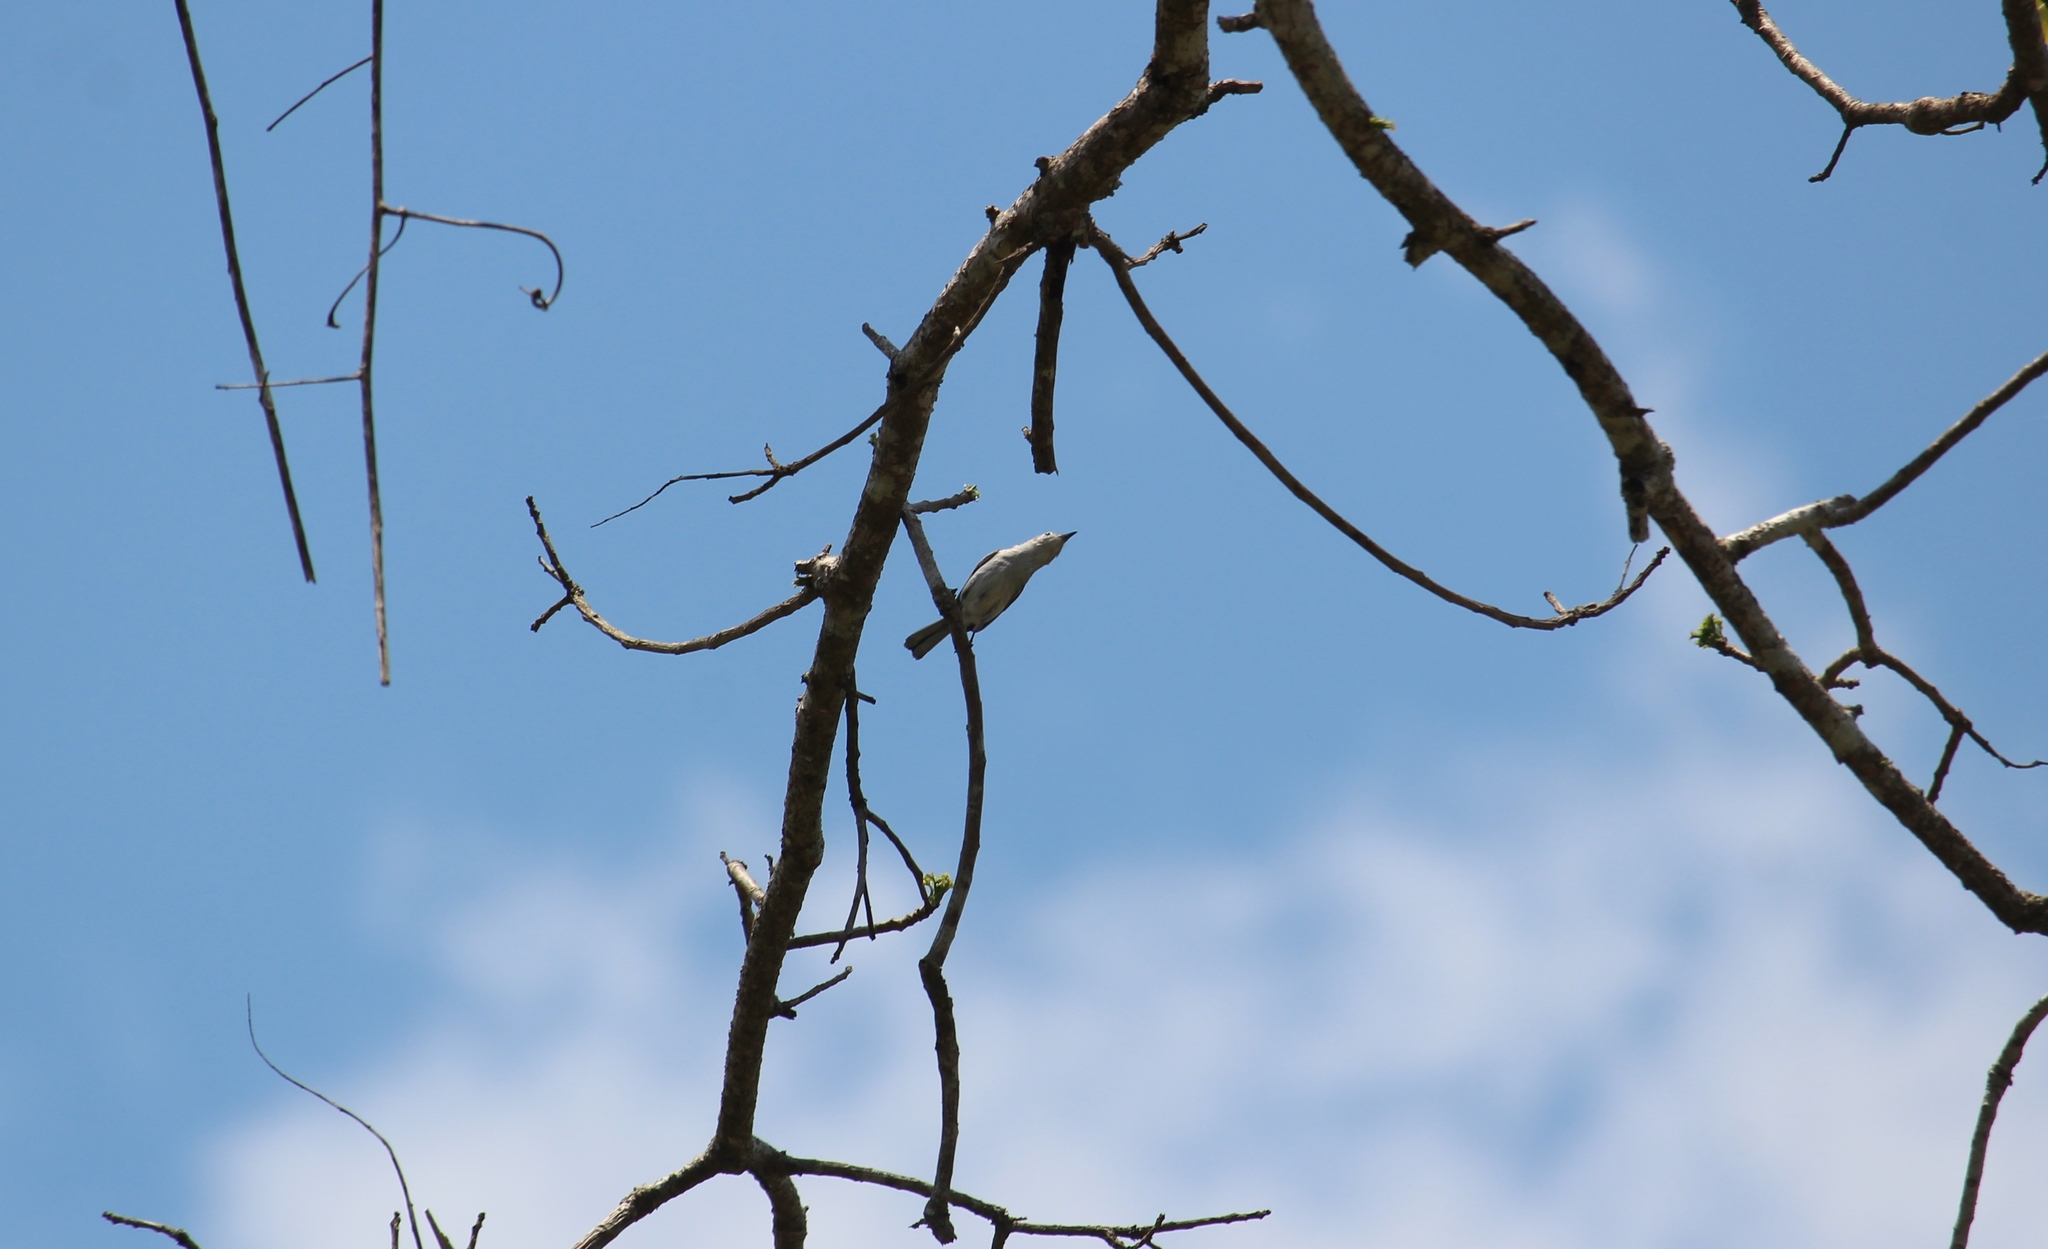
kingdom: Animalia
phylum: Chordata
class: Aves
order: Passeriformes
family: Polioptilidae
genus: Polioptila
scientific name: Polioptila caerulea
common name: Blue-gray gnatcatcher
